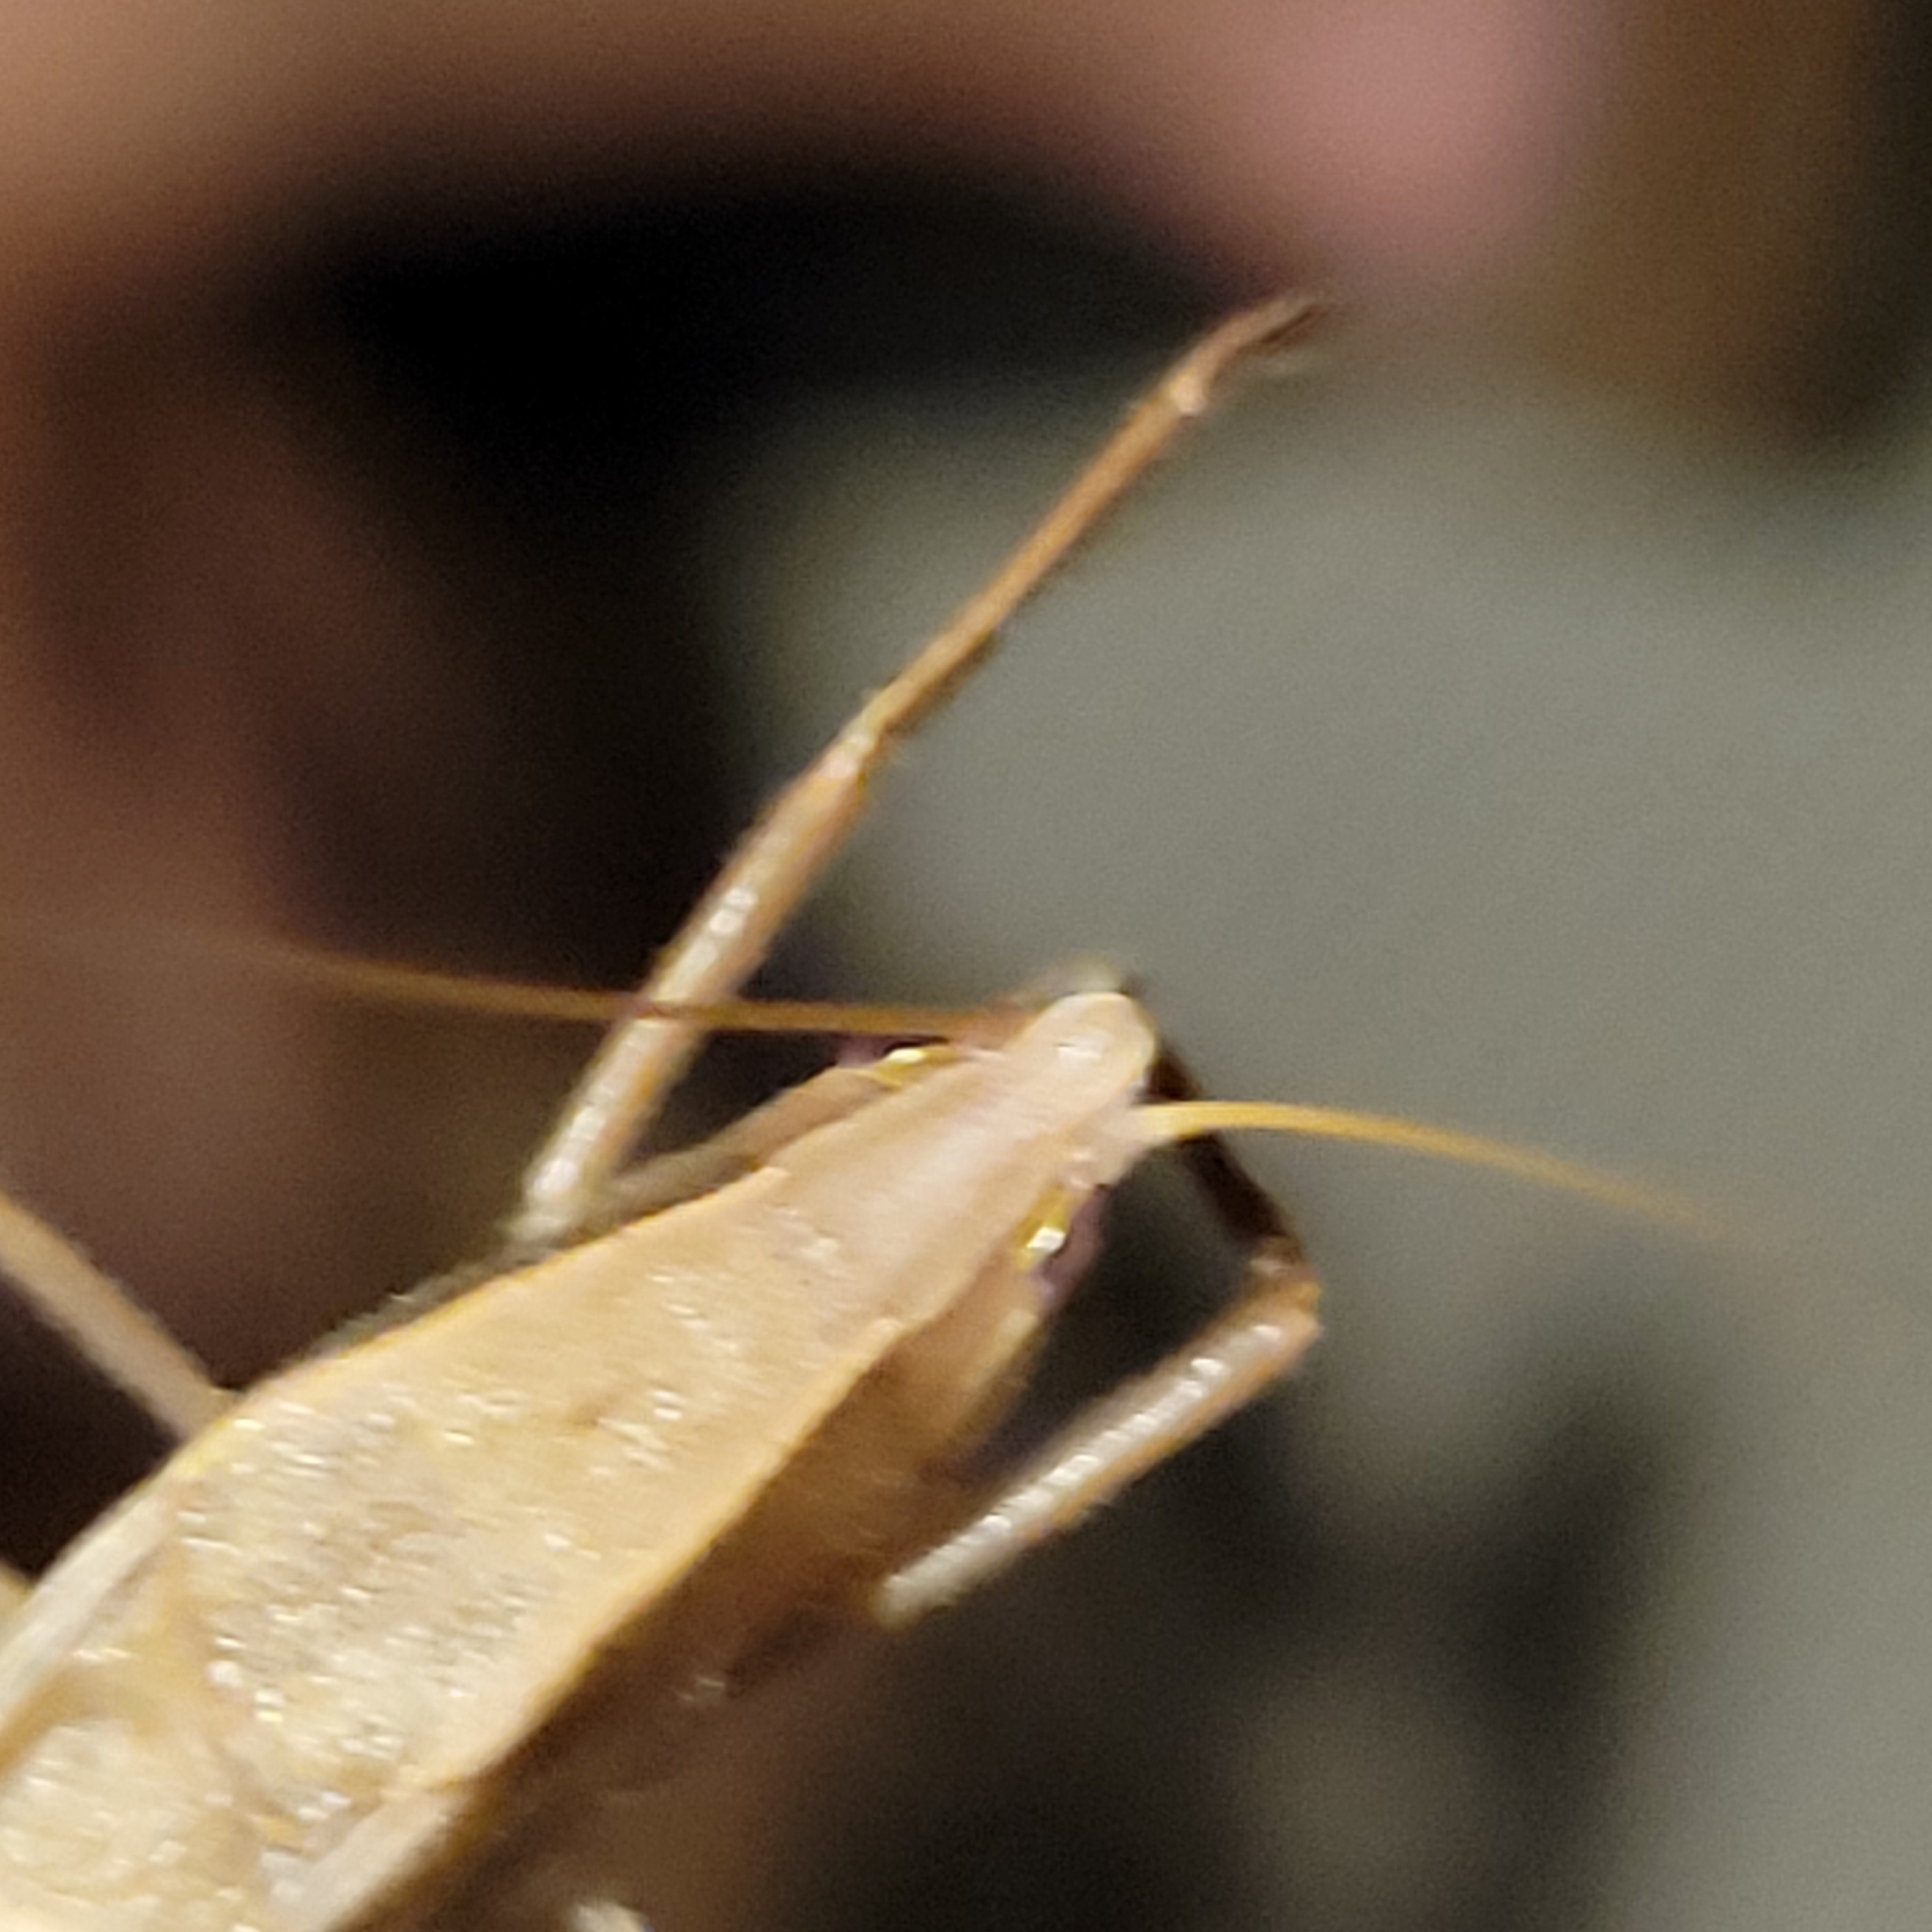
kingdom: Animalia
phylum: Arthropoda
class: Insecta
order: Orthoptera
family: Tettigoniidae
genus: Neoconocephalus
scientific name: Neoconocephalus retusus
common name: Round-tipped conehead
